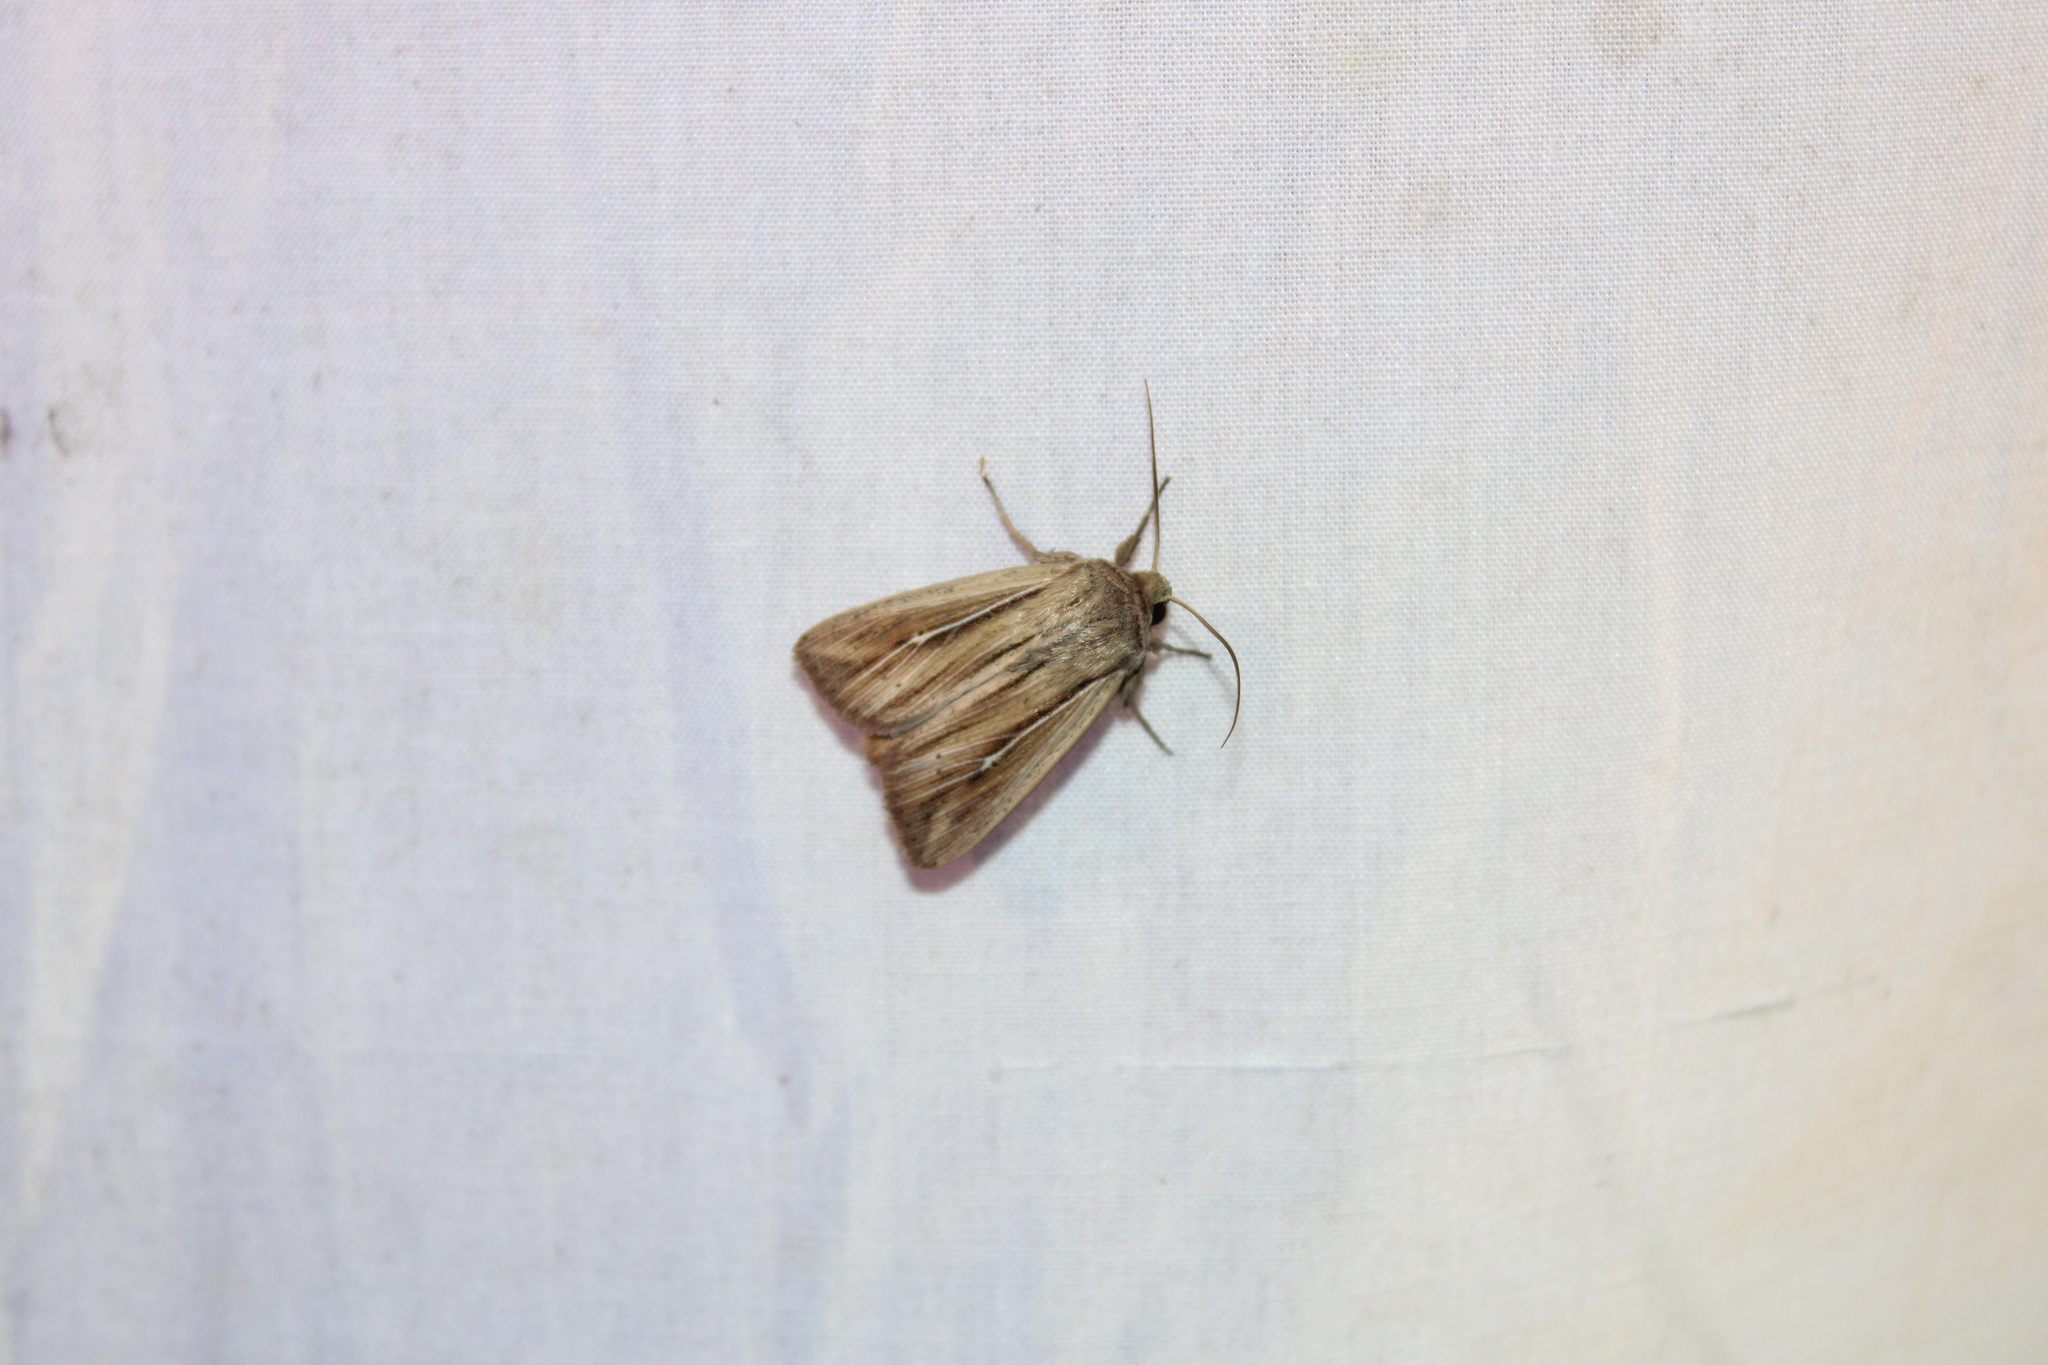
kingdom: Animalia
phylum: Arthropoda
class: Insecta
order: Lepidoptera
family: Noctuidae
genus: Leucania
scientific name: Leucania commoides
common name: Two-lined wainscot
